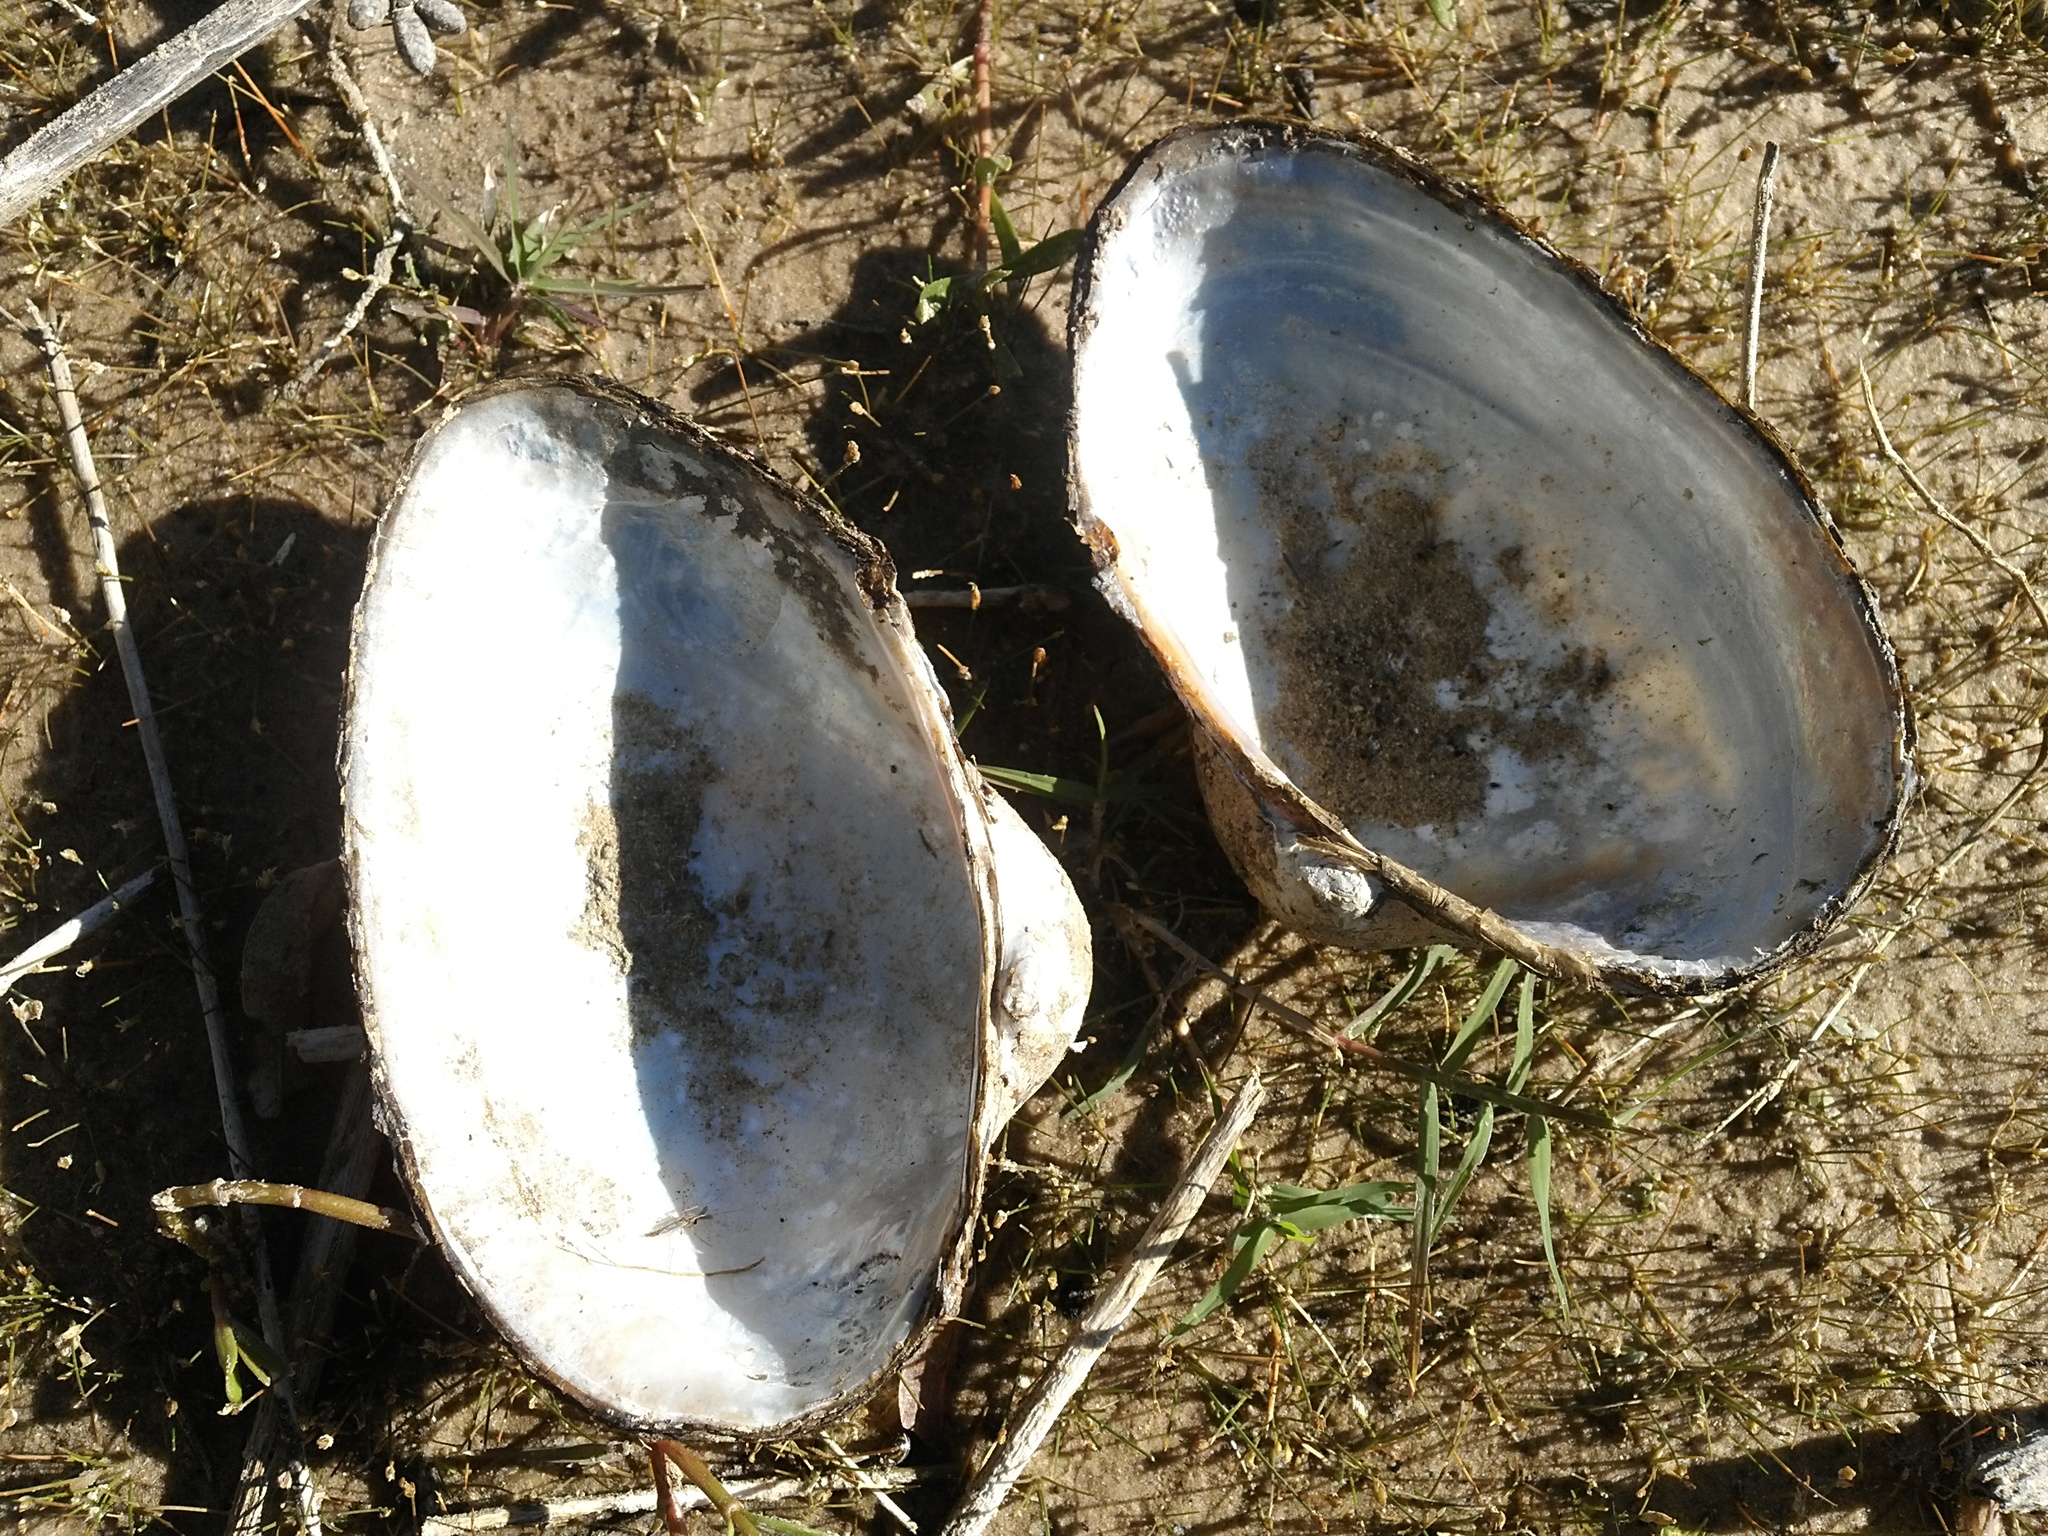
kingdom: Animalia
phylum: Mollusca
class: Bivalvia
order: Unionida
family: Unionidae
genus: Pyganodon
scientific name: Pyganodon grandis
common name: Giant floater
